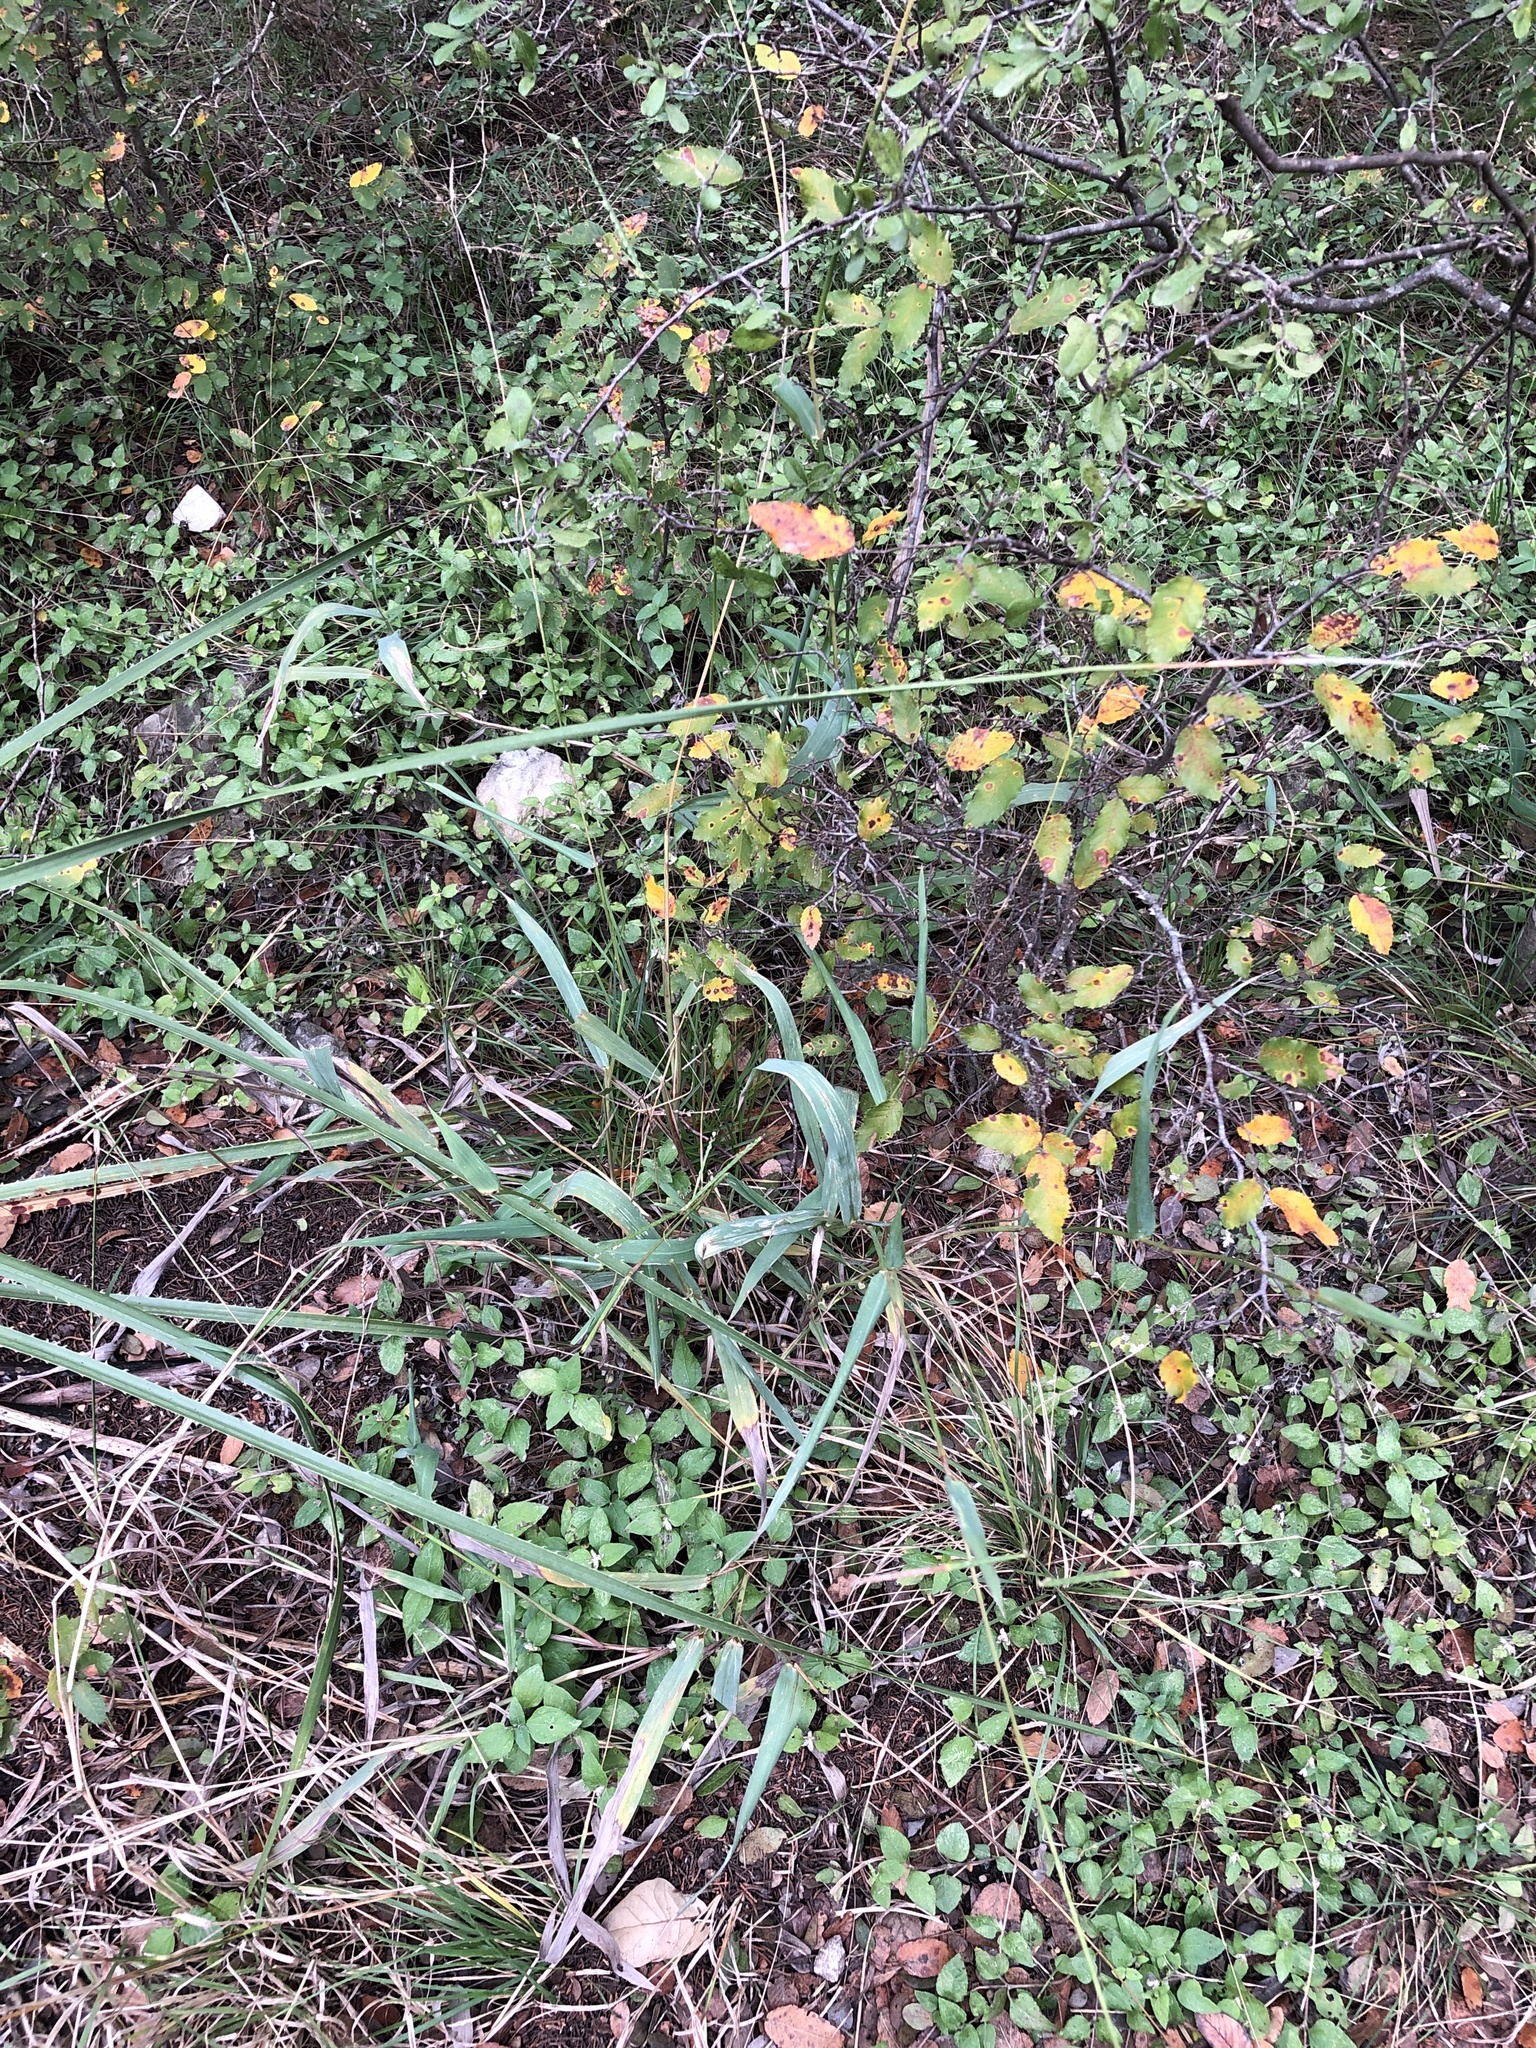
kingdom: Plantae
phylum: Tracheophyta
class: Liliopsida
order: Poales
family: Poaceae
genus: Paspalum
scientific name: Paspalum langei
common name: Rusty-seed paspalum
